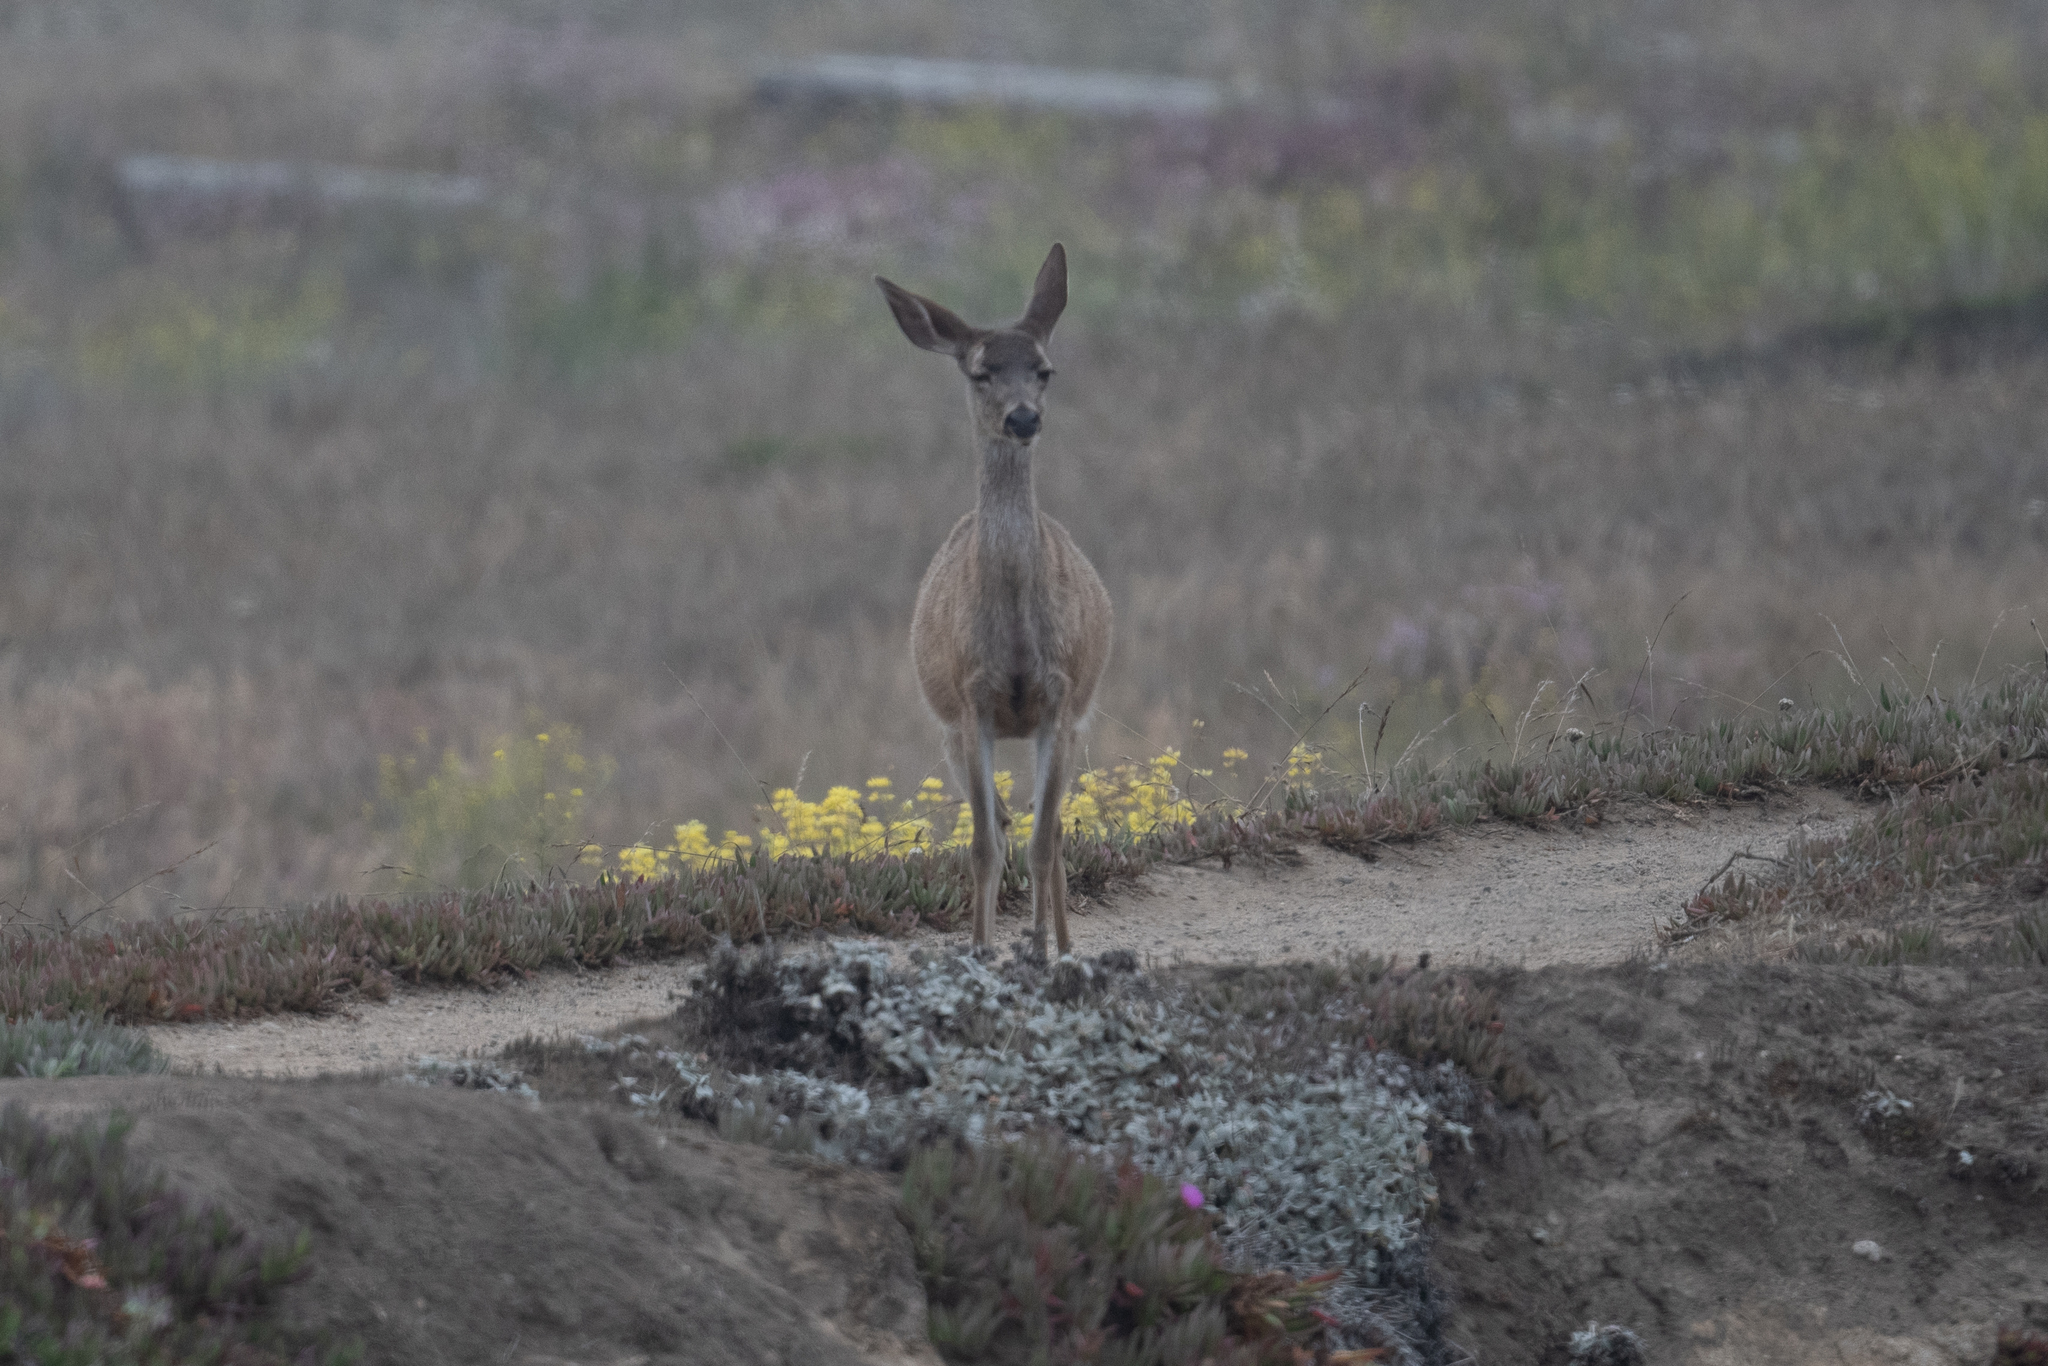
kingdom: Animalia
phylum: Chordata
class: Mammalia
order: Artiodactyla
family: Cervidae
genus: Odocoileus
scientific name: Odocoileus hemionus
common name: Mule deer
